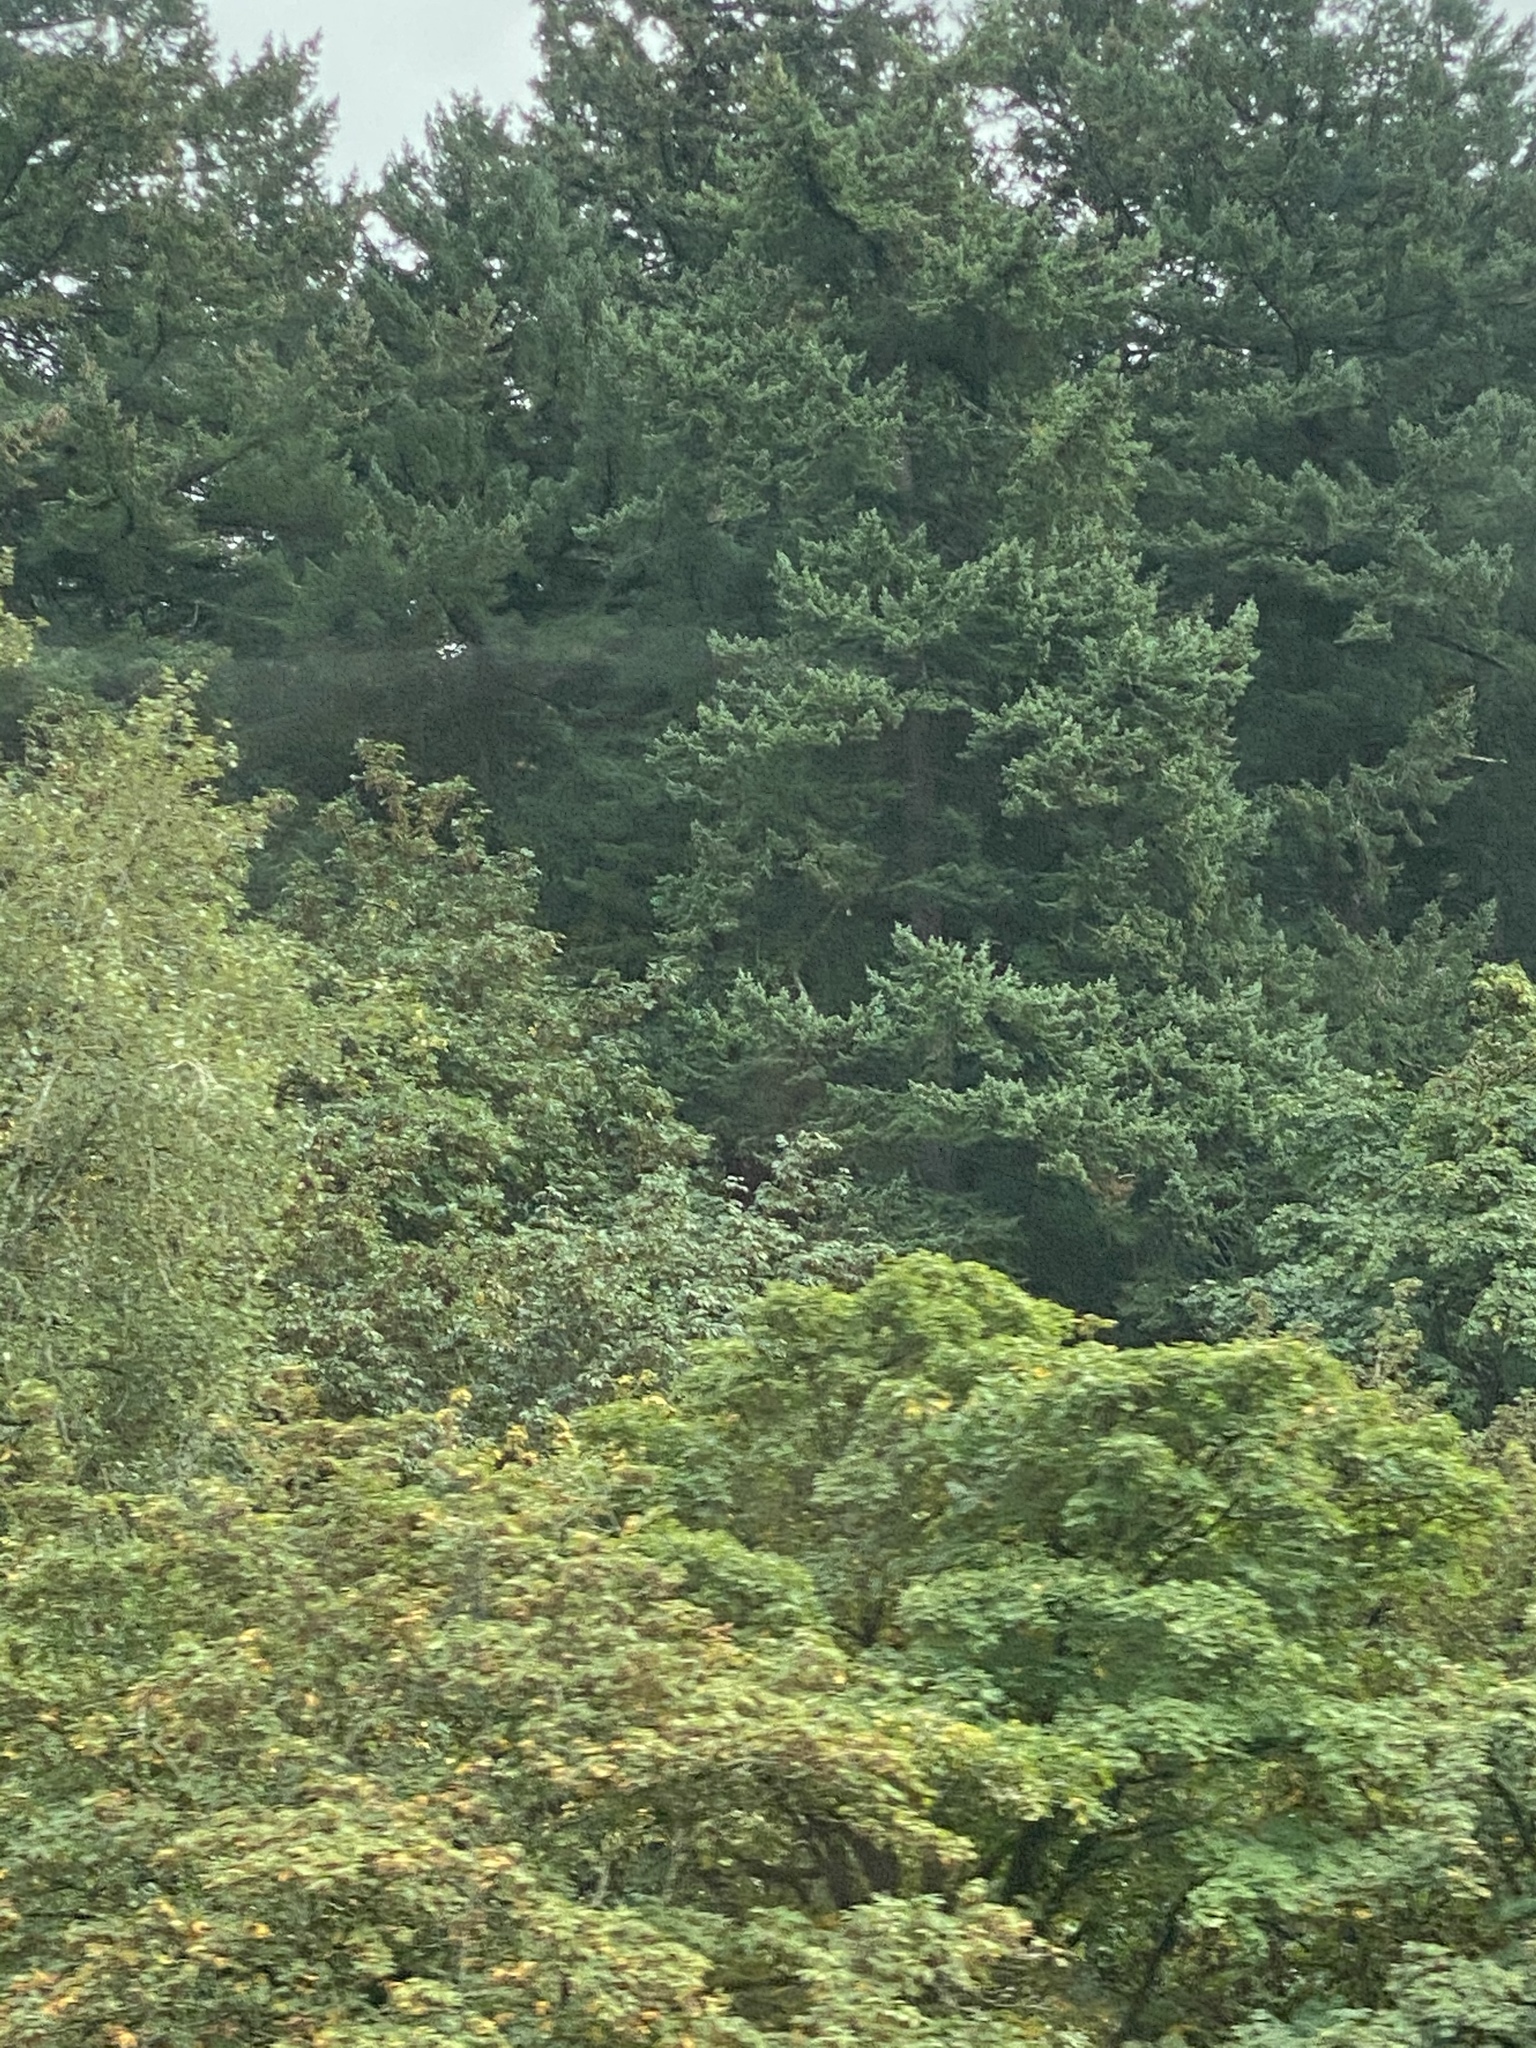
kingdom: Plantae
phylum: Tracheophyta
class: Pinopsida
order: Pinales
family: Pinaceae
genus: Pseudotsuga
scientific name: Pseudotsuga menziesii
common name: Douglas fir
